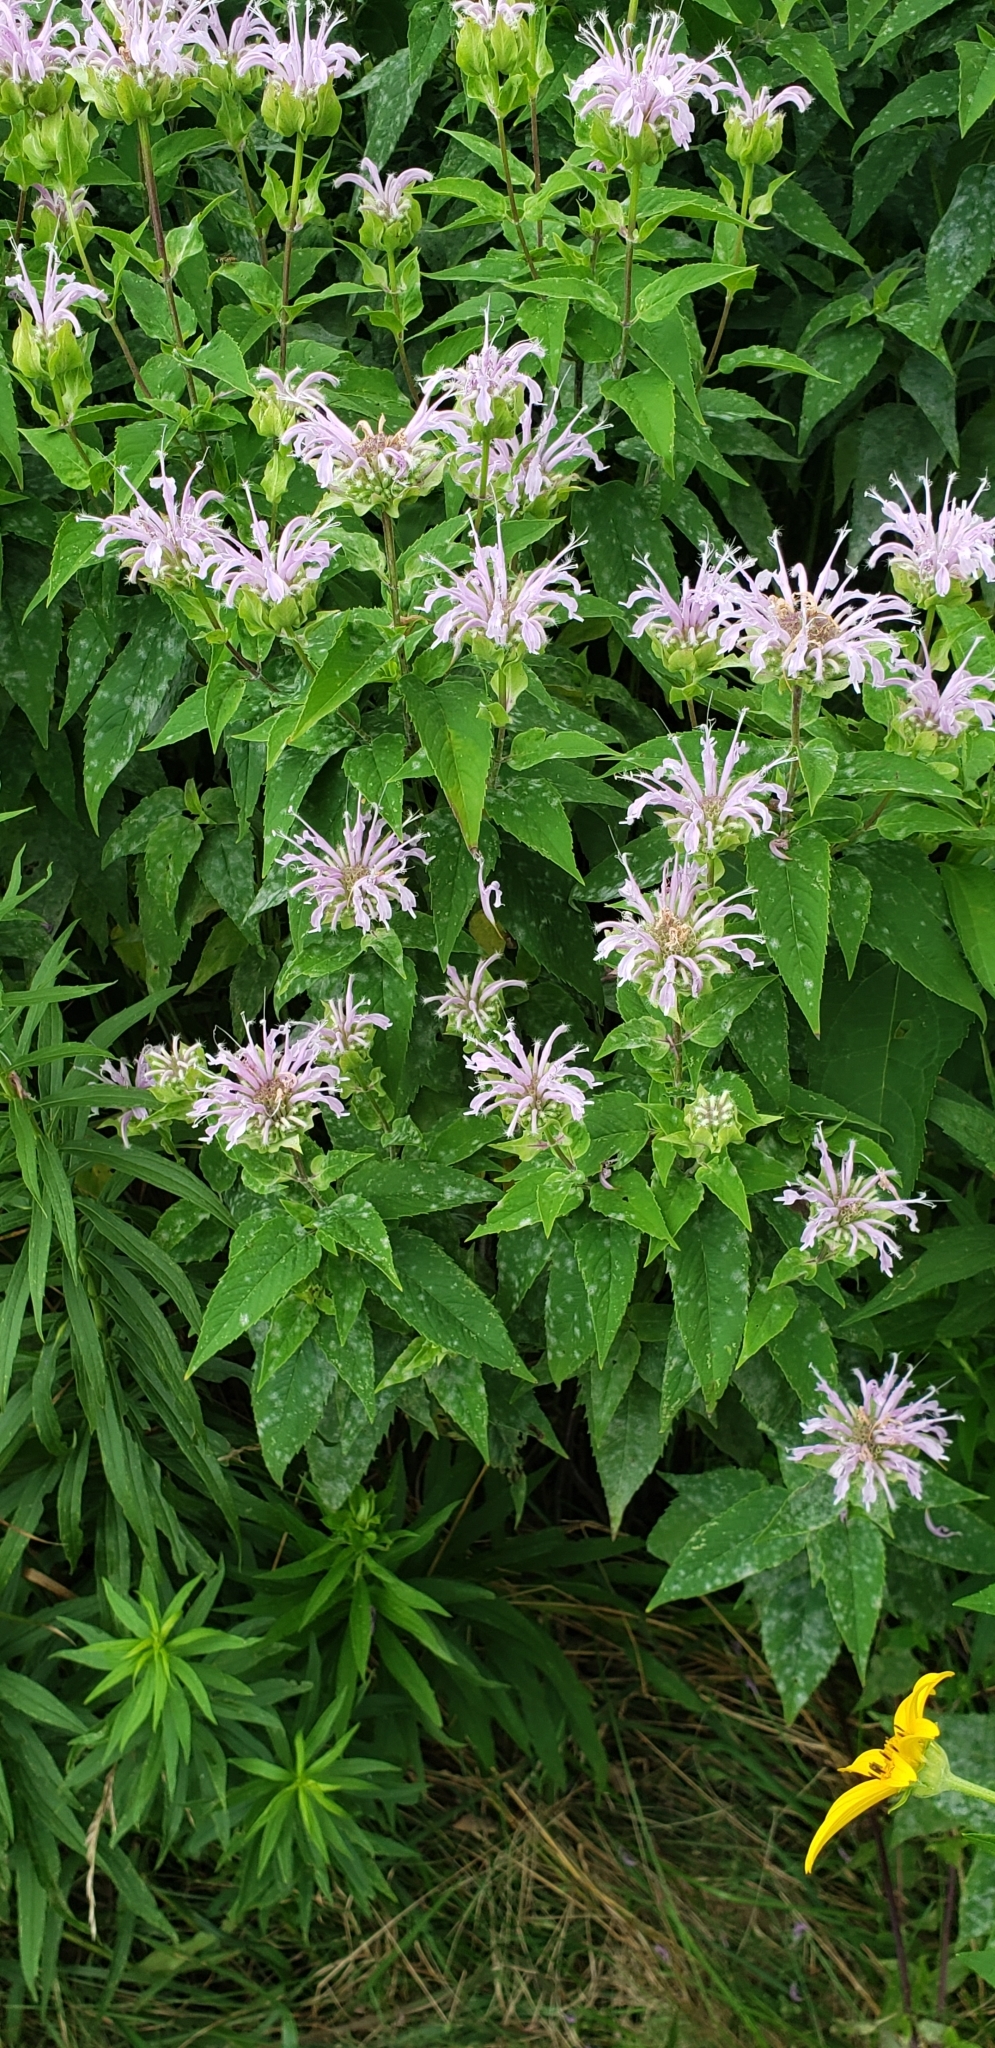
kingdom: Plantae
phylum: Tracheophyta
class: Magnoliopsida
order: Lamiales
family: Lamiaceae
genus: Monarda
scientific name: Monarda fistulosa
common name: Purple beebalm
